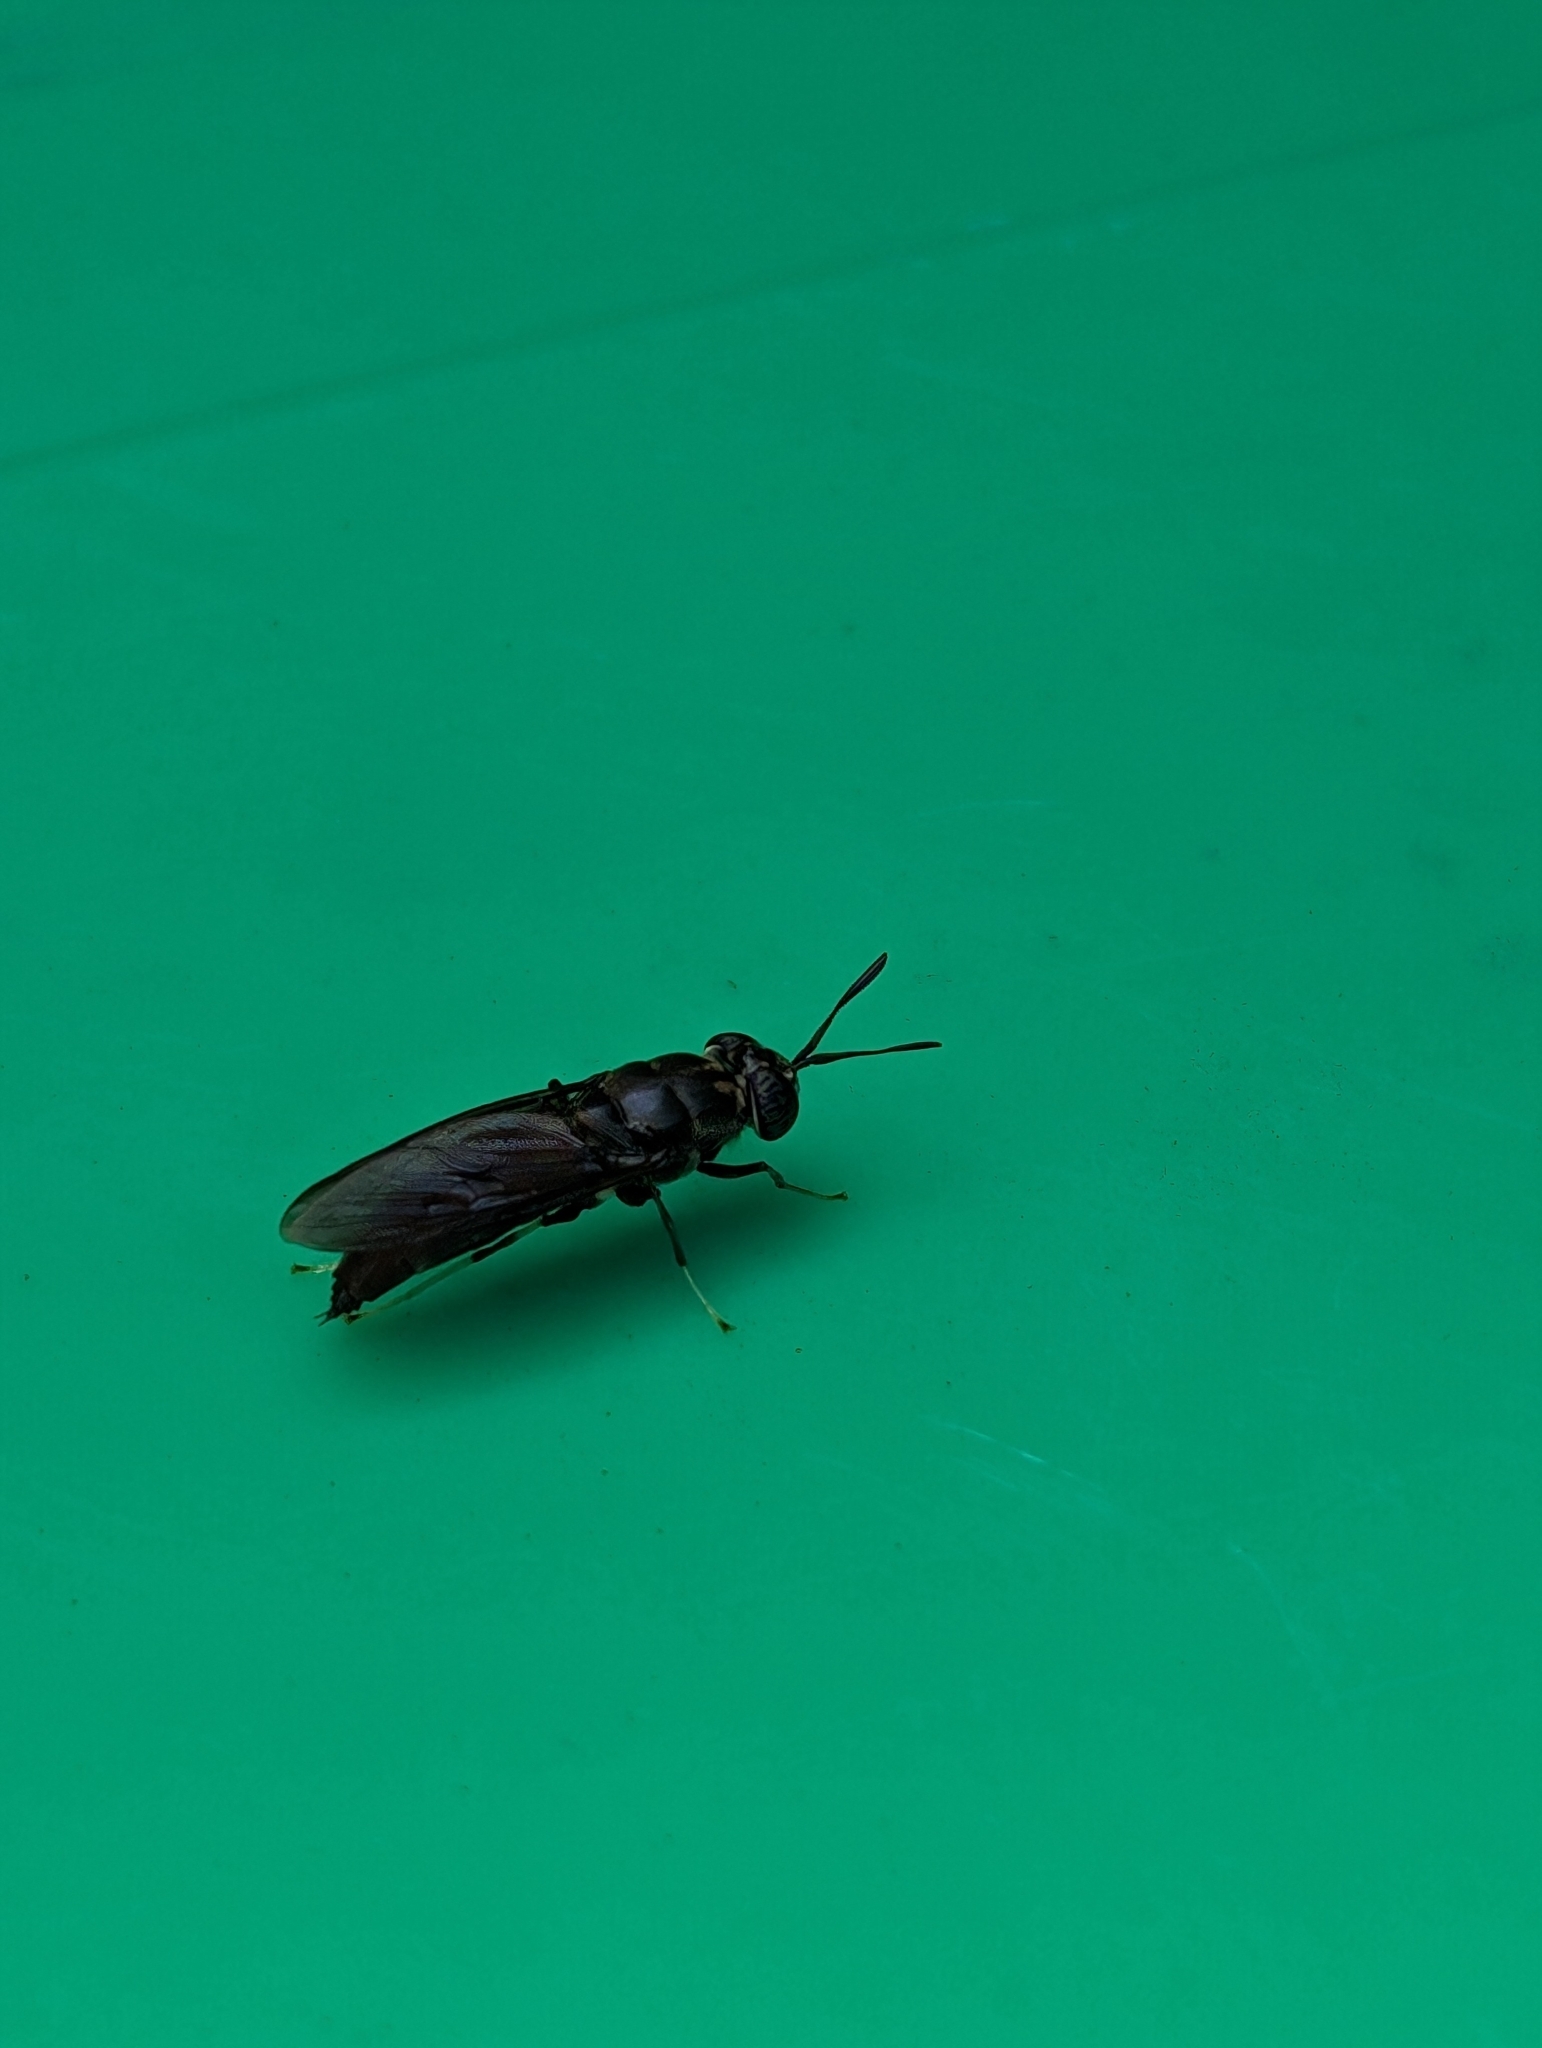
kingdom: Animalia
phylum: Arthropoda
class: Insecta
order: Diptera
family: Stratiomyidae
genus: Hermetia
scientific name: Hermetia illucens
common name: Black soldier fly
